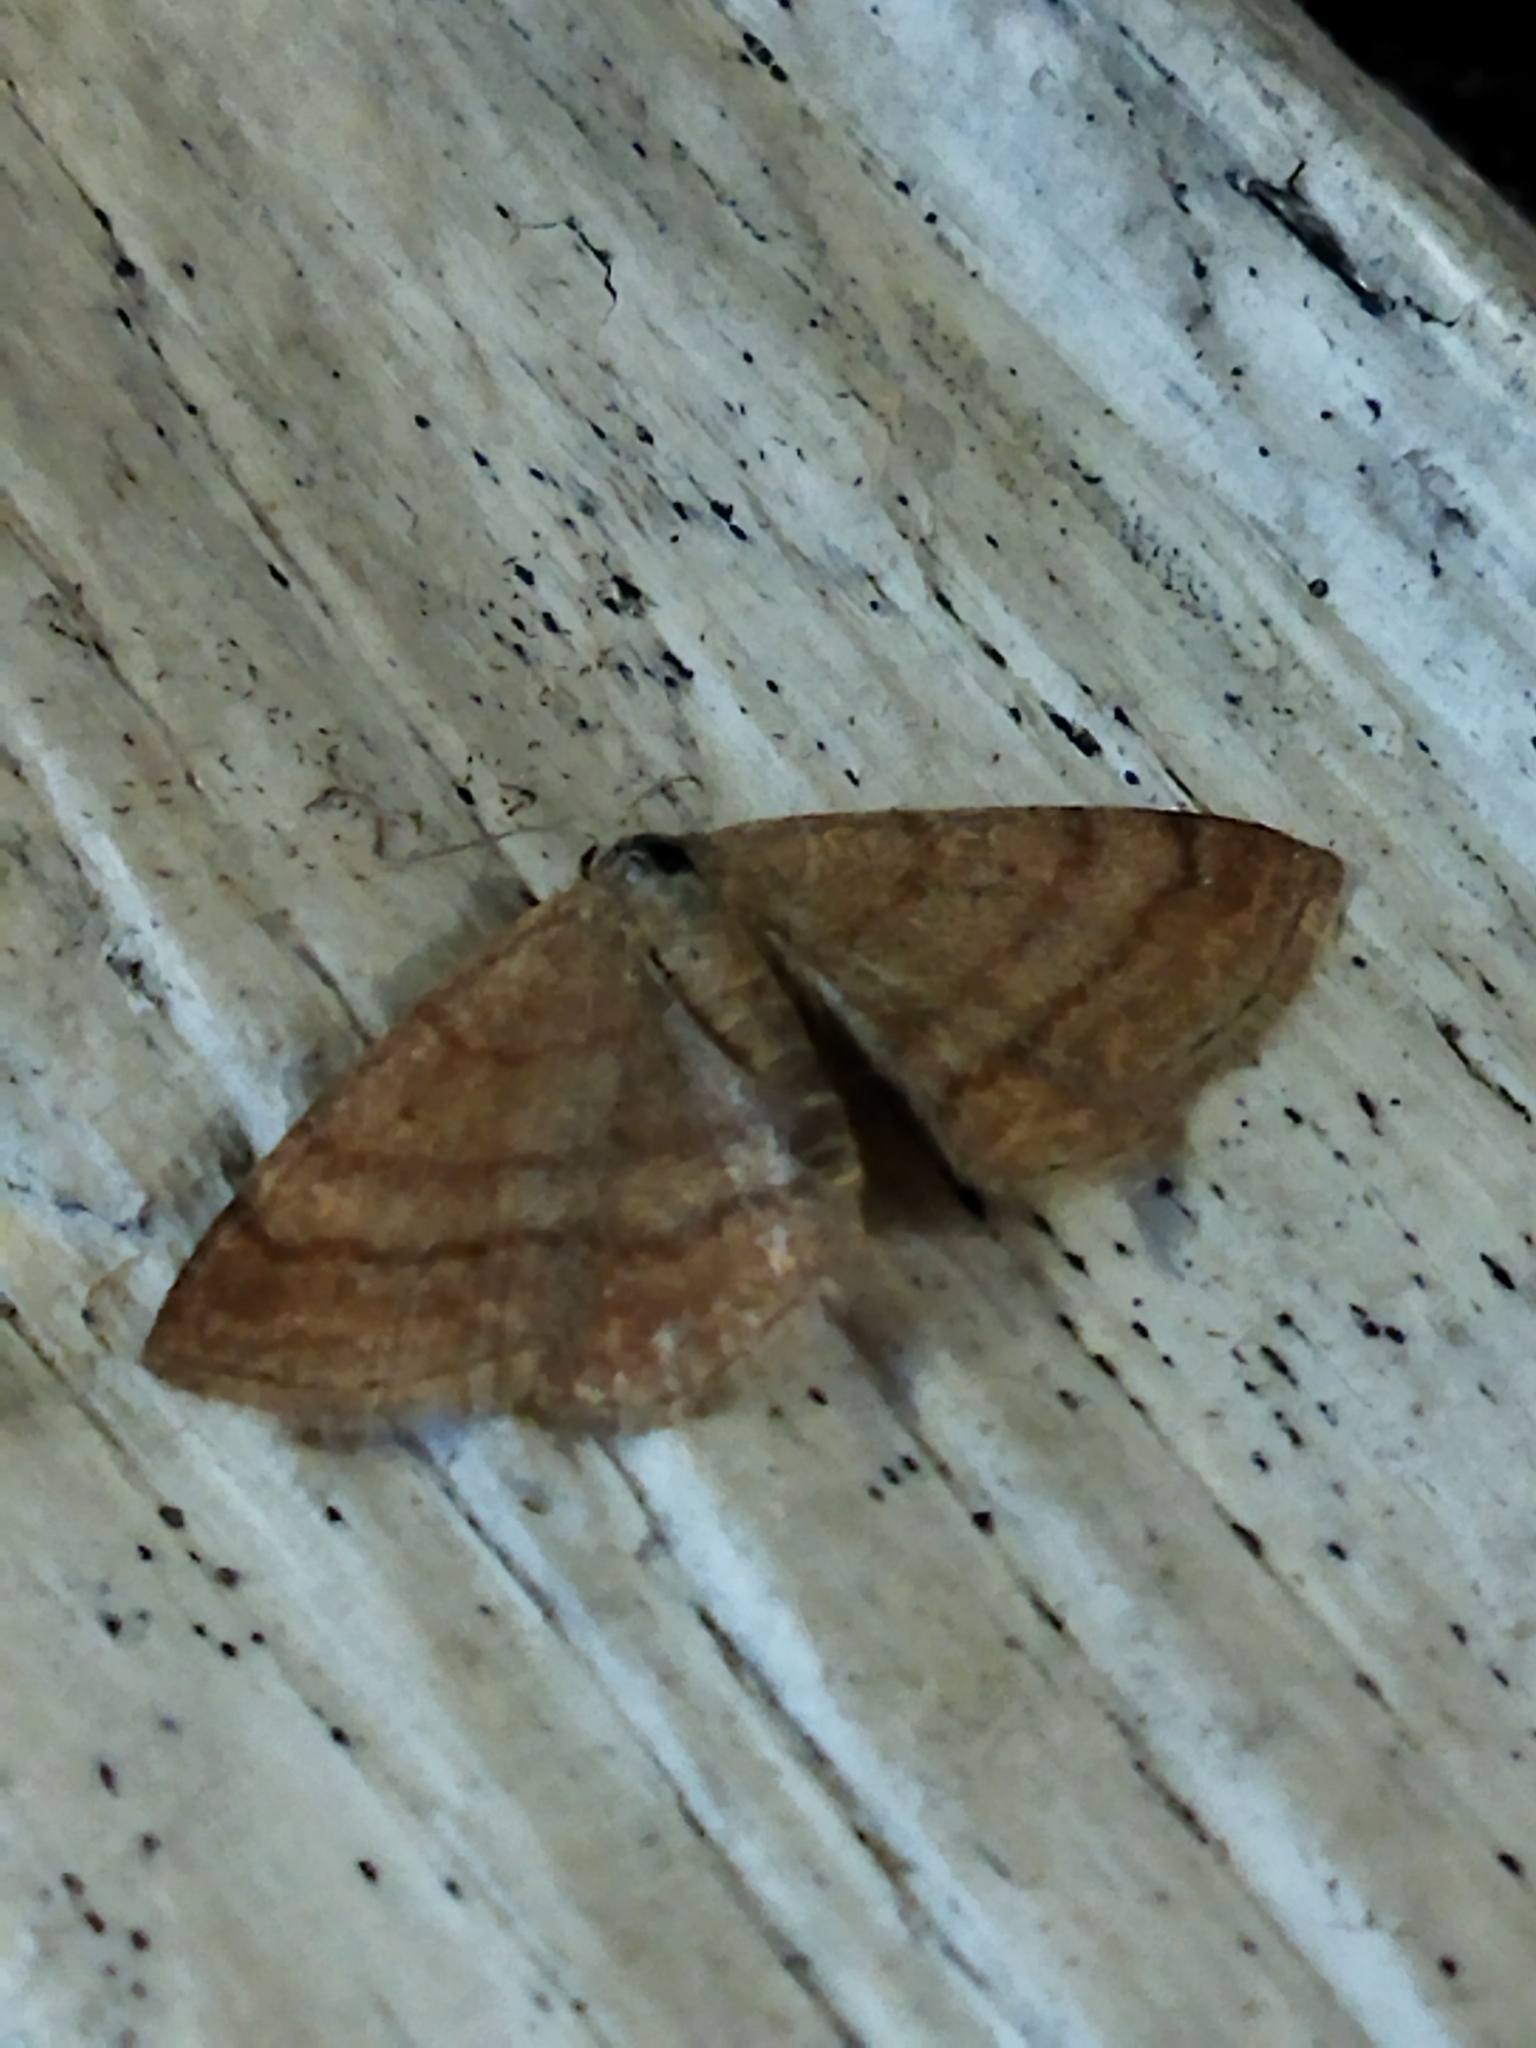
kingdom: Animalia
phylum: Arthropoda
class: Insecta
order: Lepidoptera
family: Geometridae
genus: Scopula
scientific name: Scopula rubiginata
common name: Tawny wave
